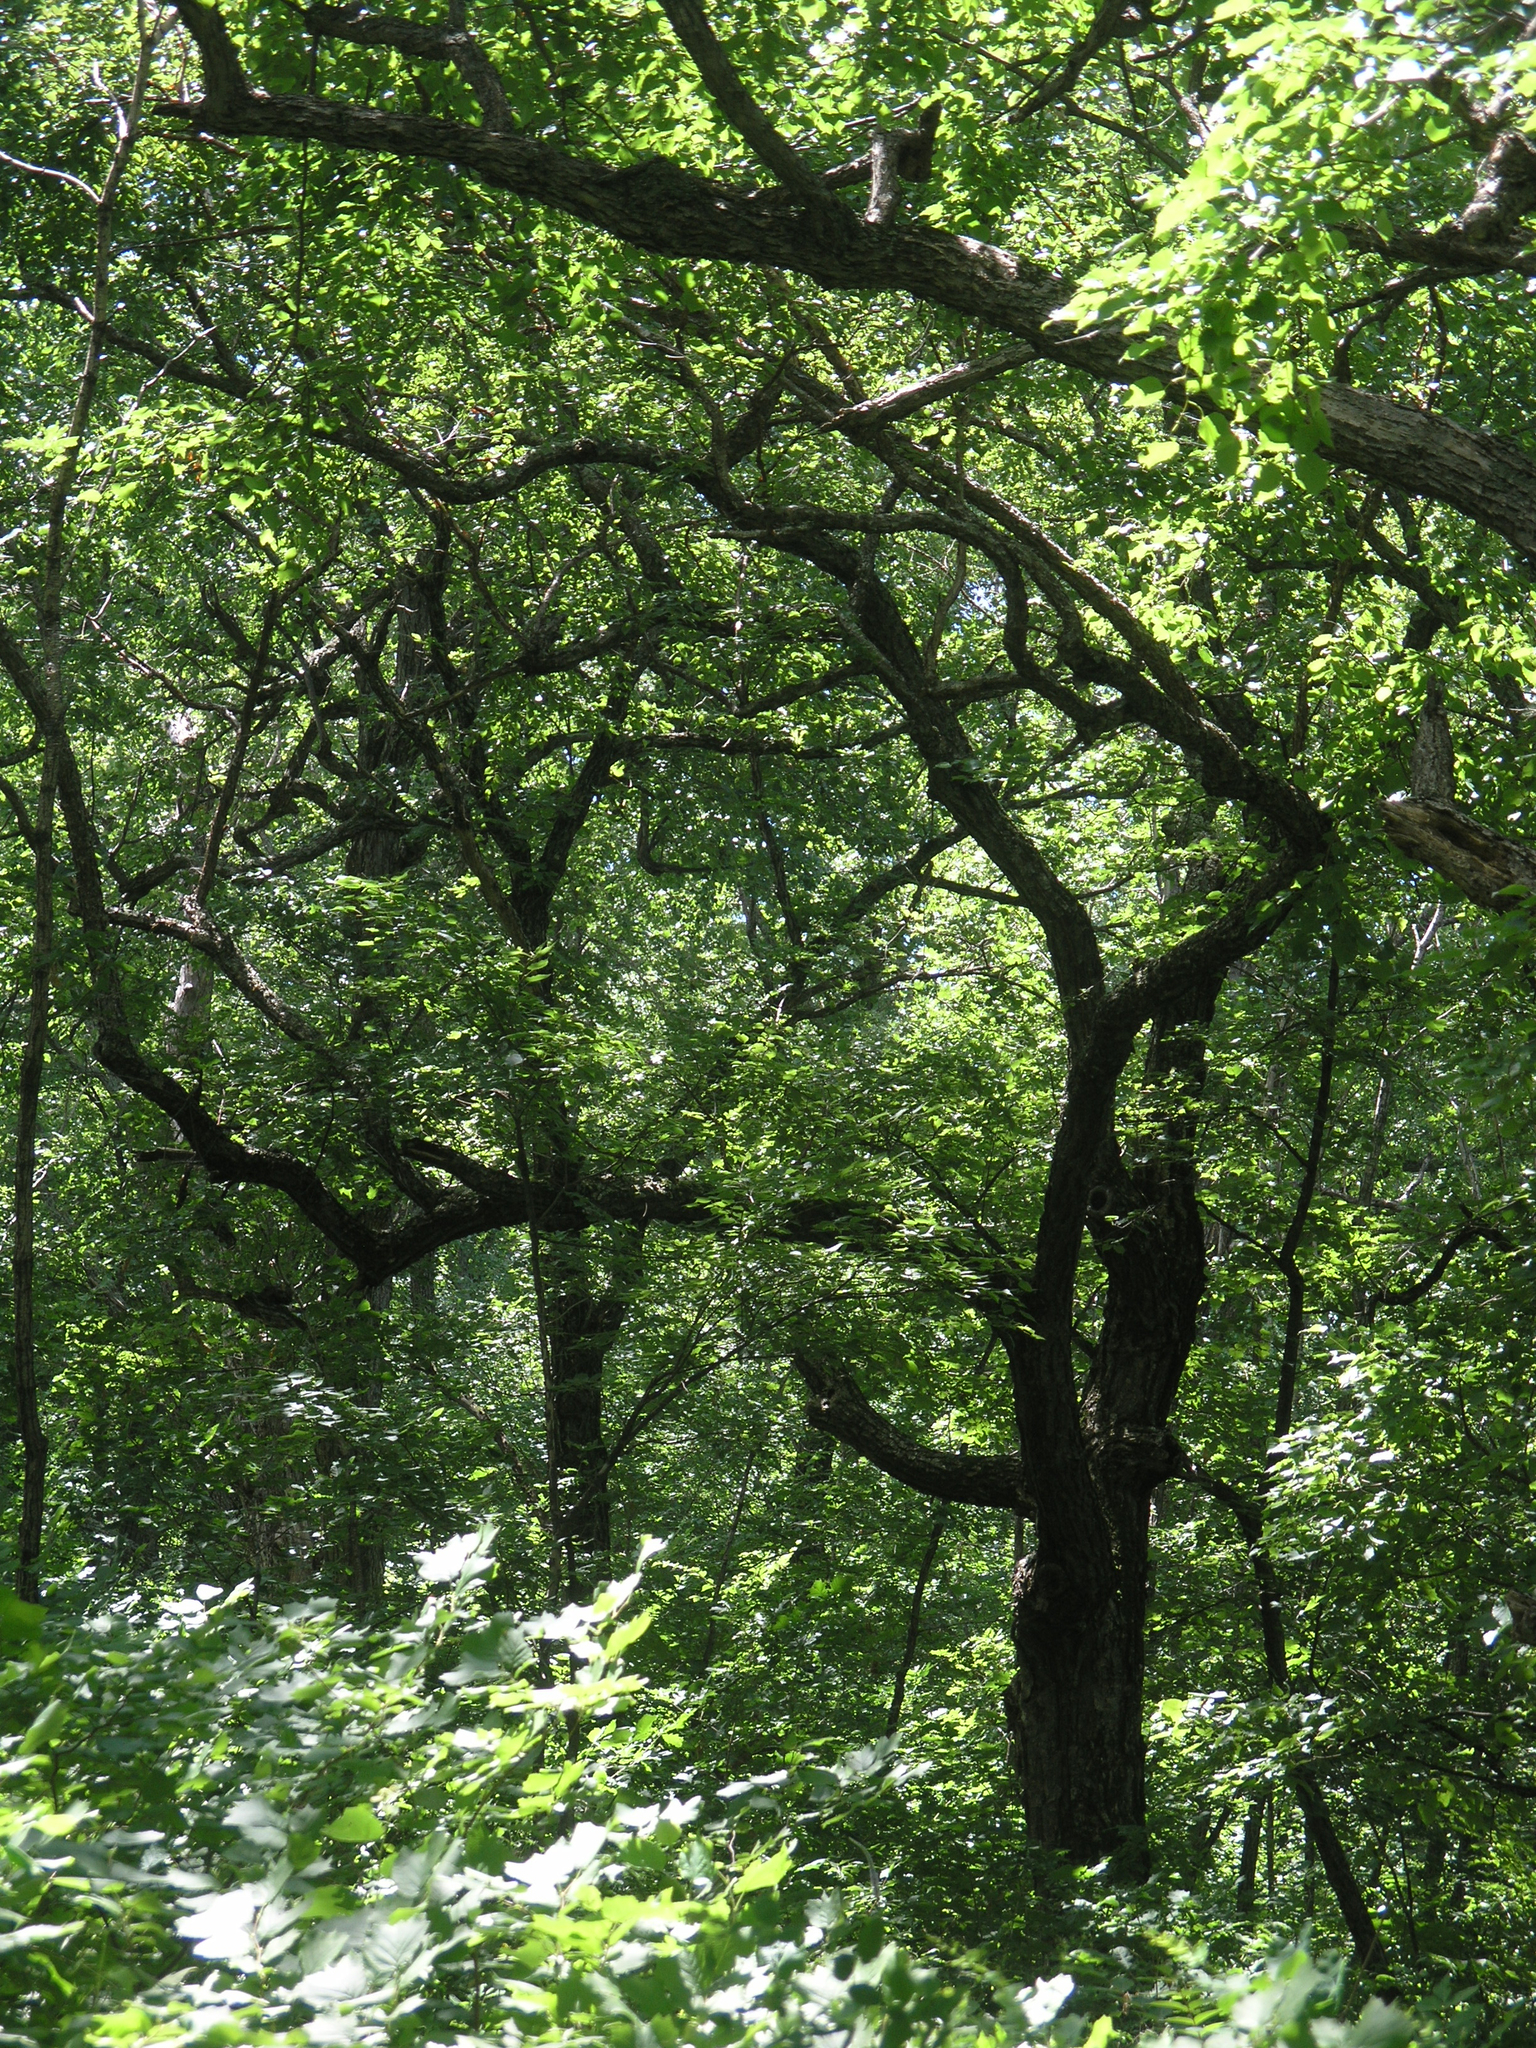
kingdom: Plantae
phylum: Tracheophyta
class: Magnoliopsida
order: Fagales
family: Fagaceae
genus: Quercus
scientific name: Quercus mongolica
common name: Mongolian oak
